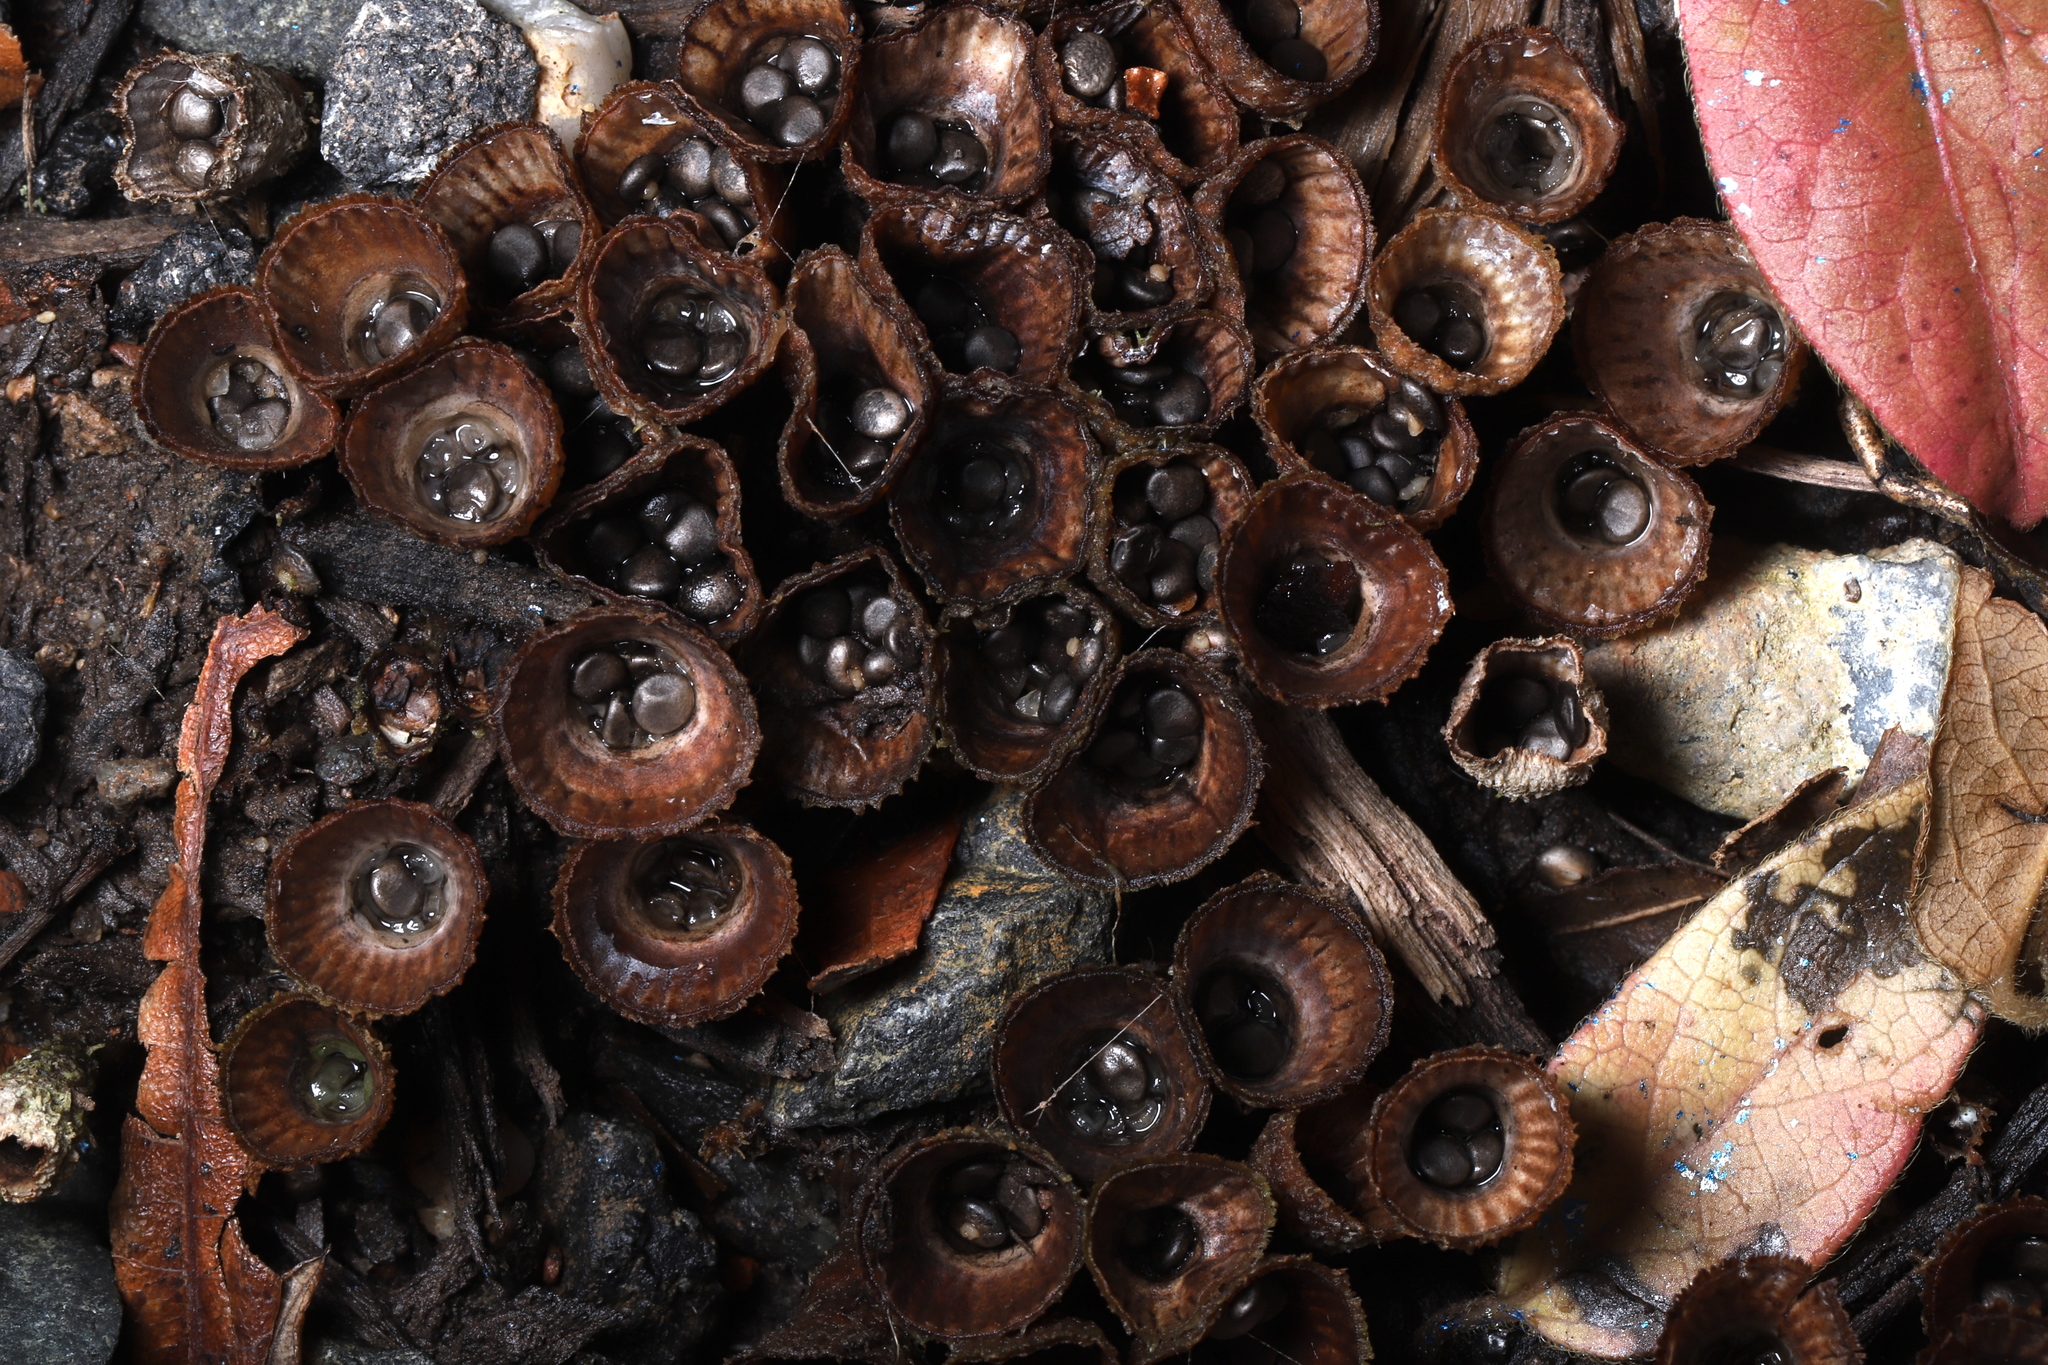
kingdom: Fungi
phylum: Basidiomycota
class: Agaricomycetes
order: Agaricales
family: Agaricaceae
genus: Cyathus
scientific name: Cyathus striatus
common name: Fluted bird's nest
